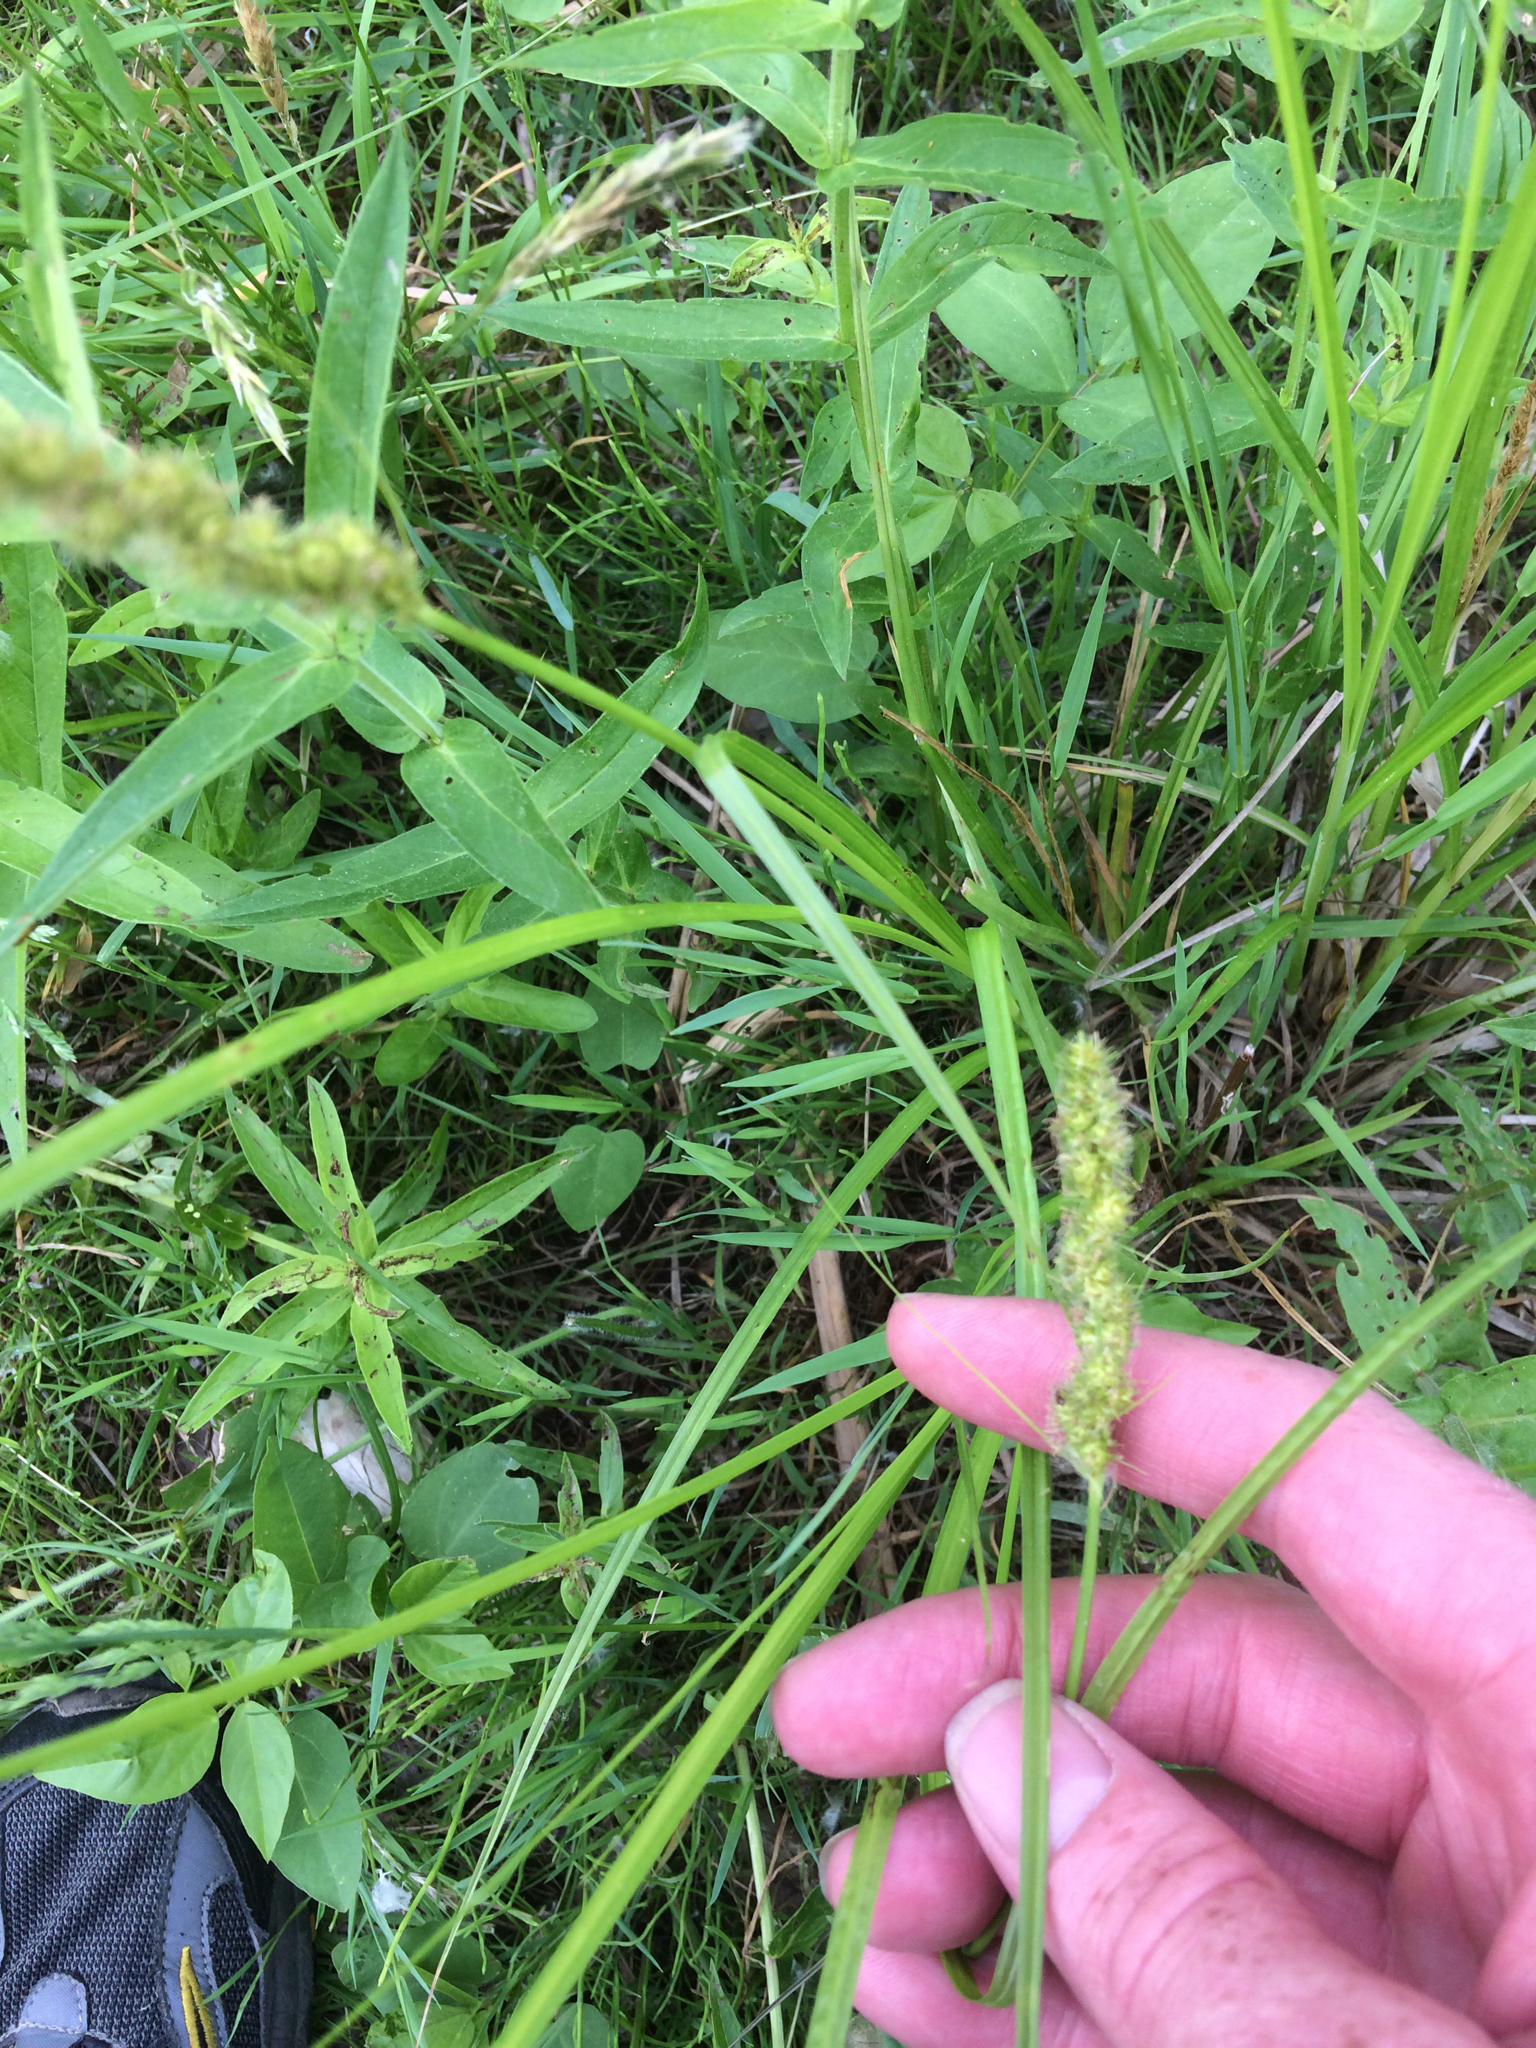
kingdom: Plantae
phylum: Tracheophyta
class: Liliopsida
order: Poales
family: Cyperaceae
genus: Carex
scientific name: Carex stipata
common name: Awl-fruited sedge
